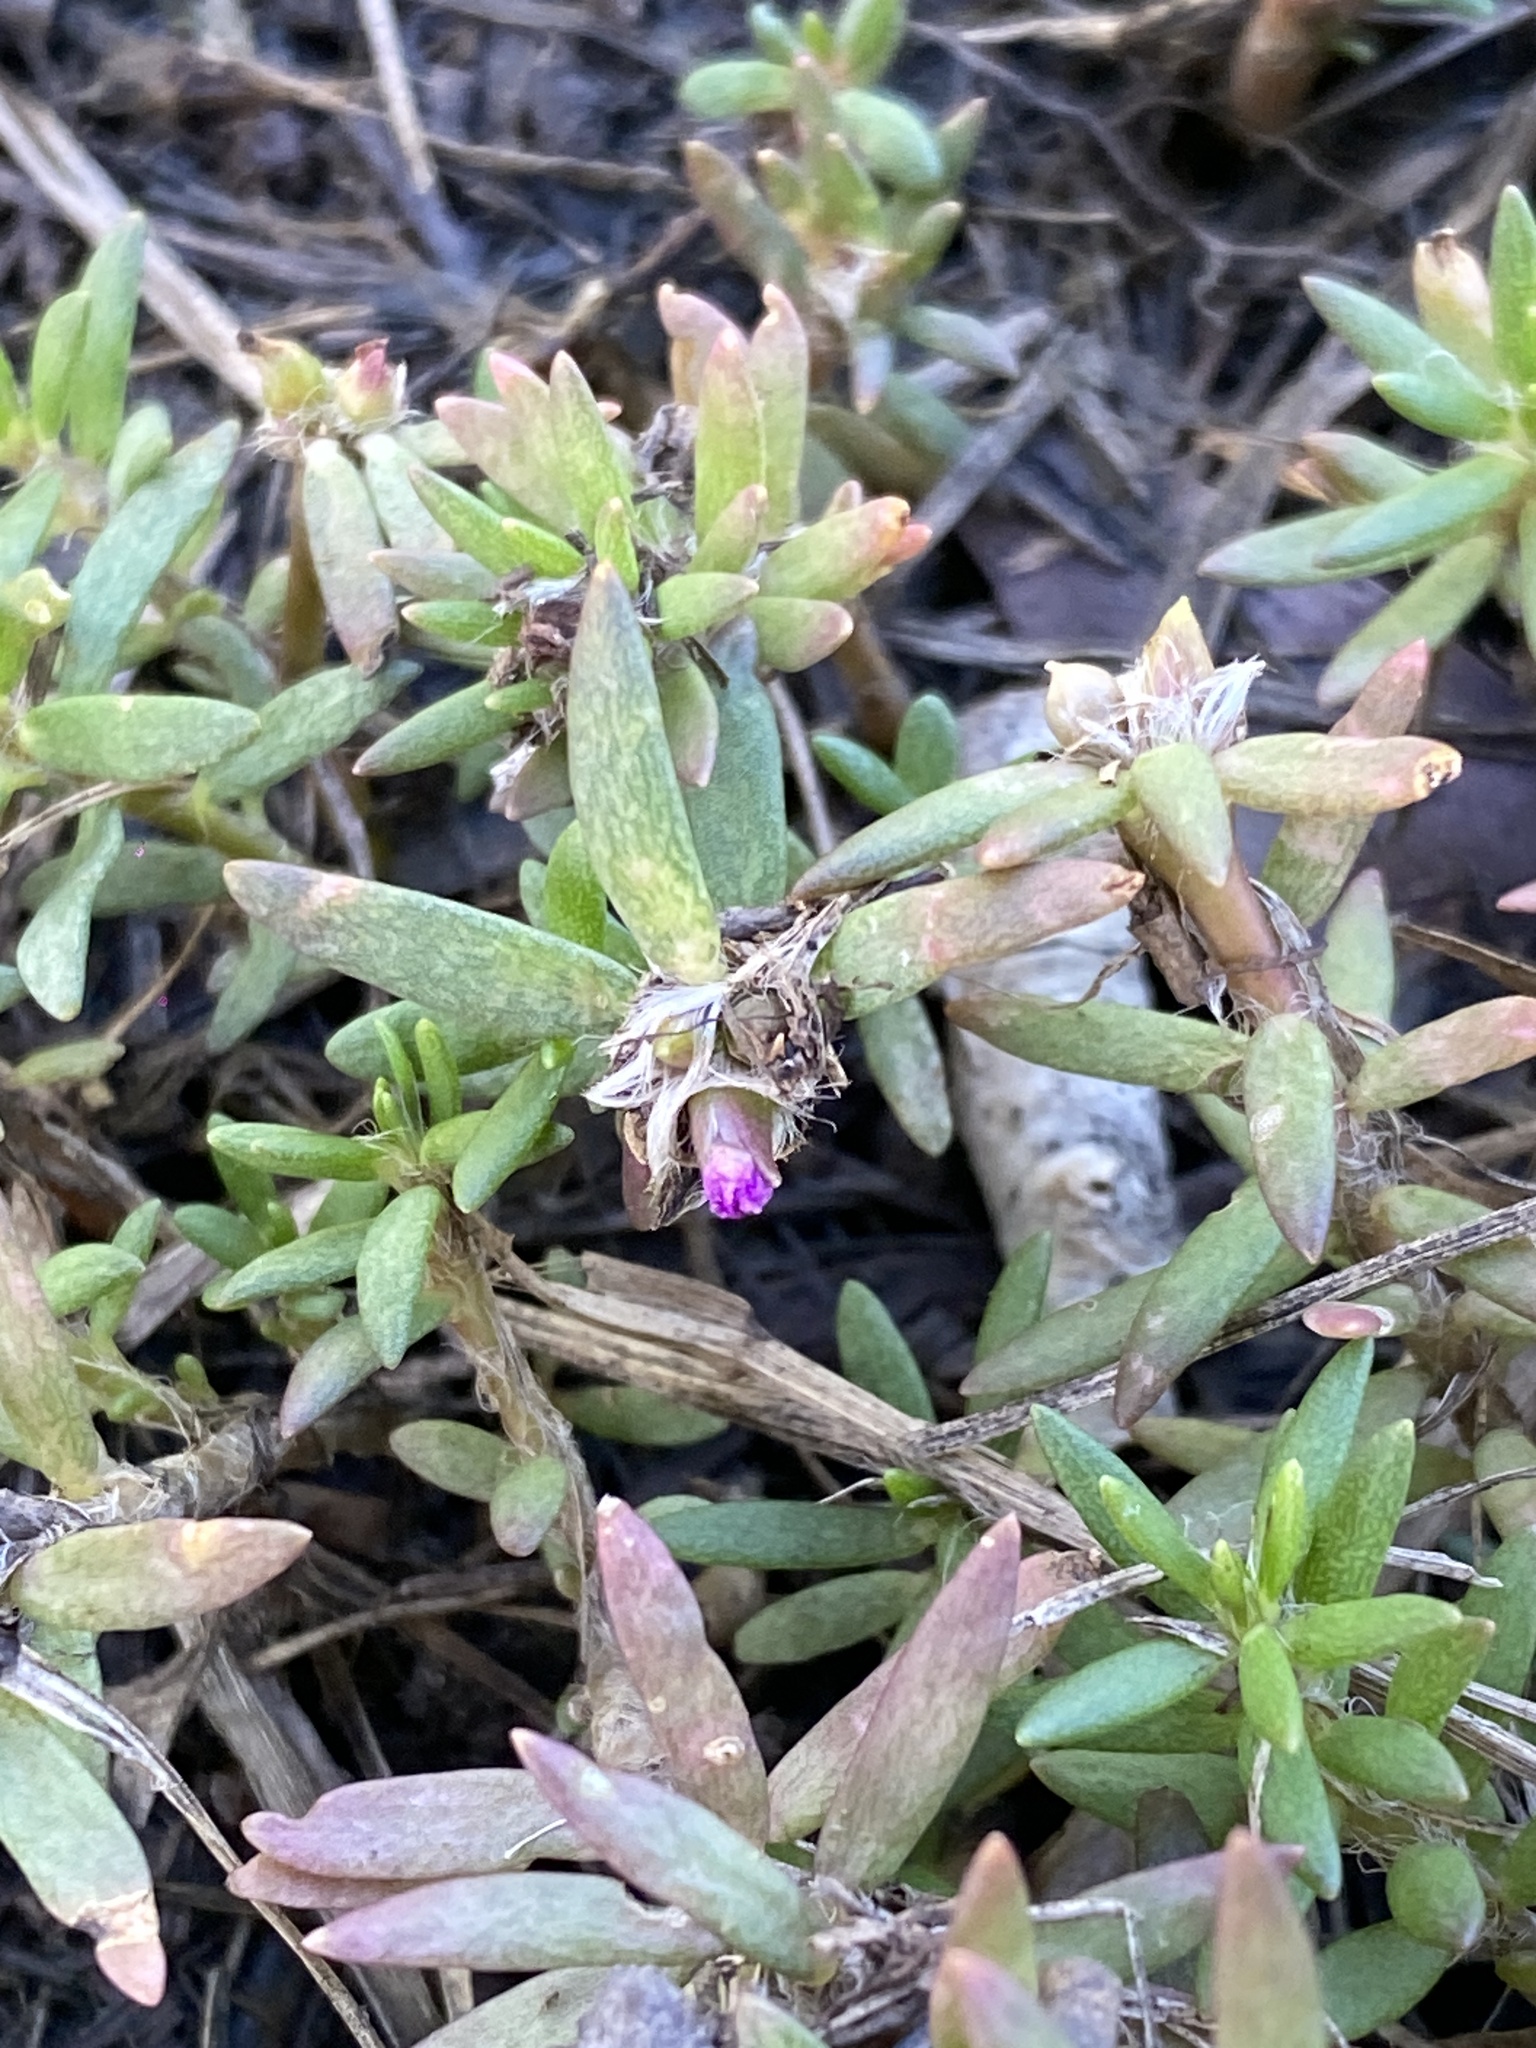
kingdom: Plantae
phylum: Tracheophyta
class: Magnoliopsida
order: Caryophyllales
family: Portulacaceae
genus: Portulaca
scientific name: Portulaca pilosa
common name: Kiss me quick
